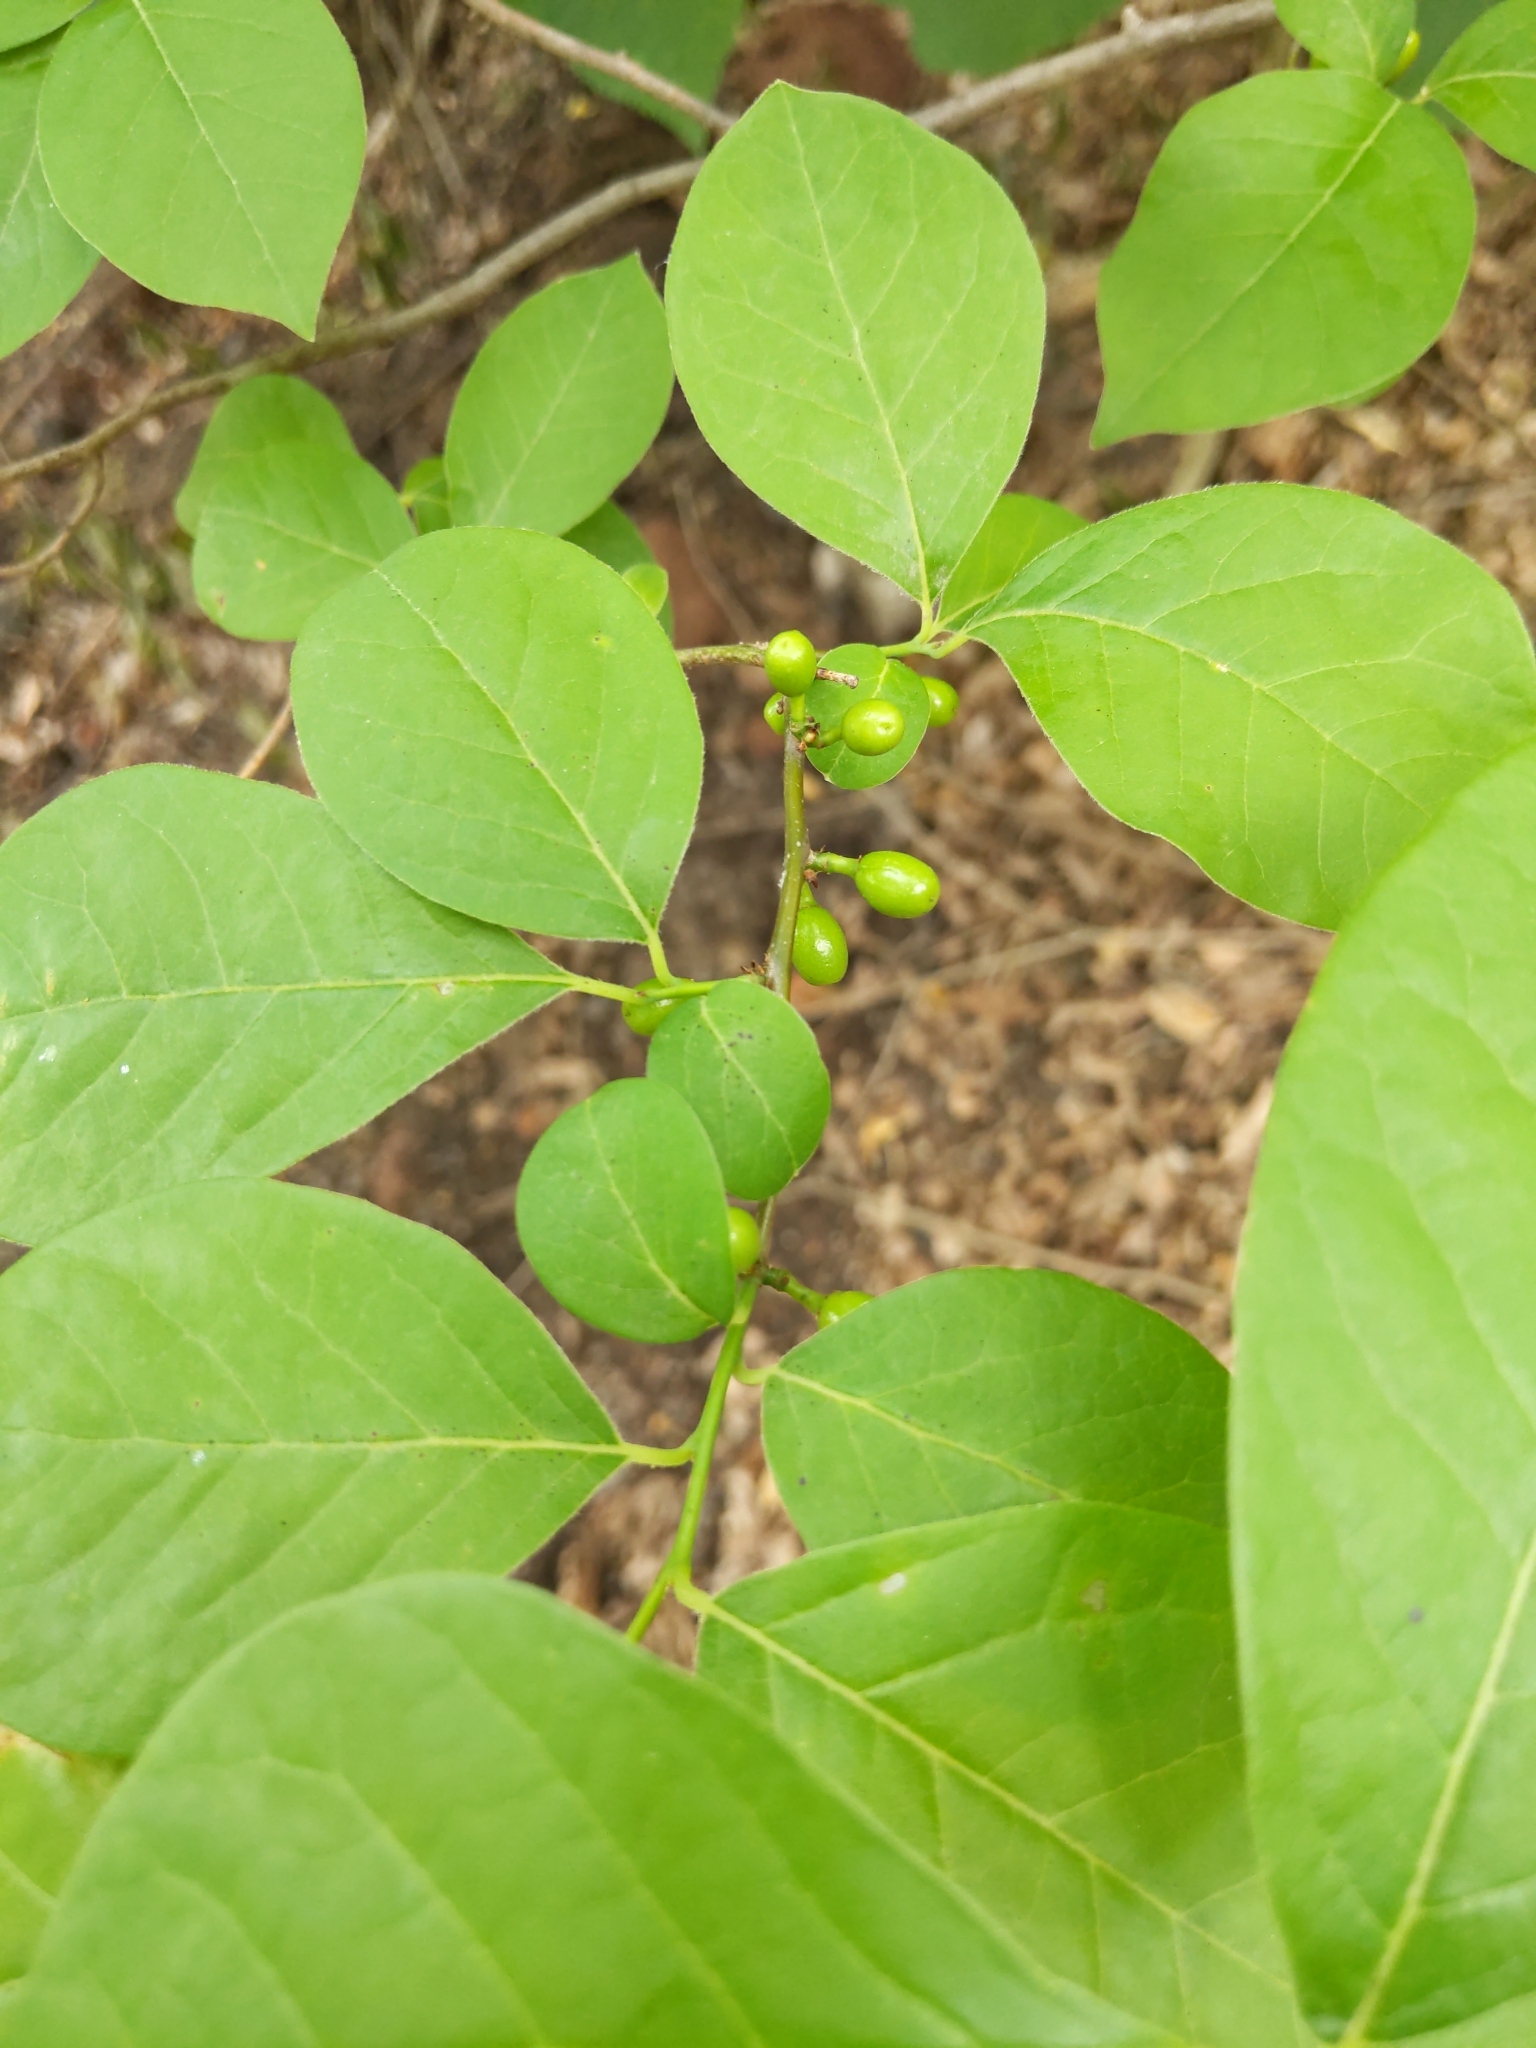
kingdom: Plantae
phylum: Tracheophyta
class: Magnoliopsida
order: Laurales
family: Lauraceae
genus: Lindera
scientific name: Lindera benzoin
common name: Spicebush
